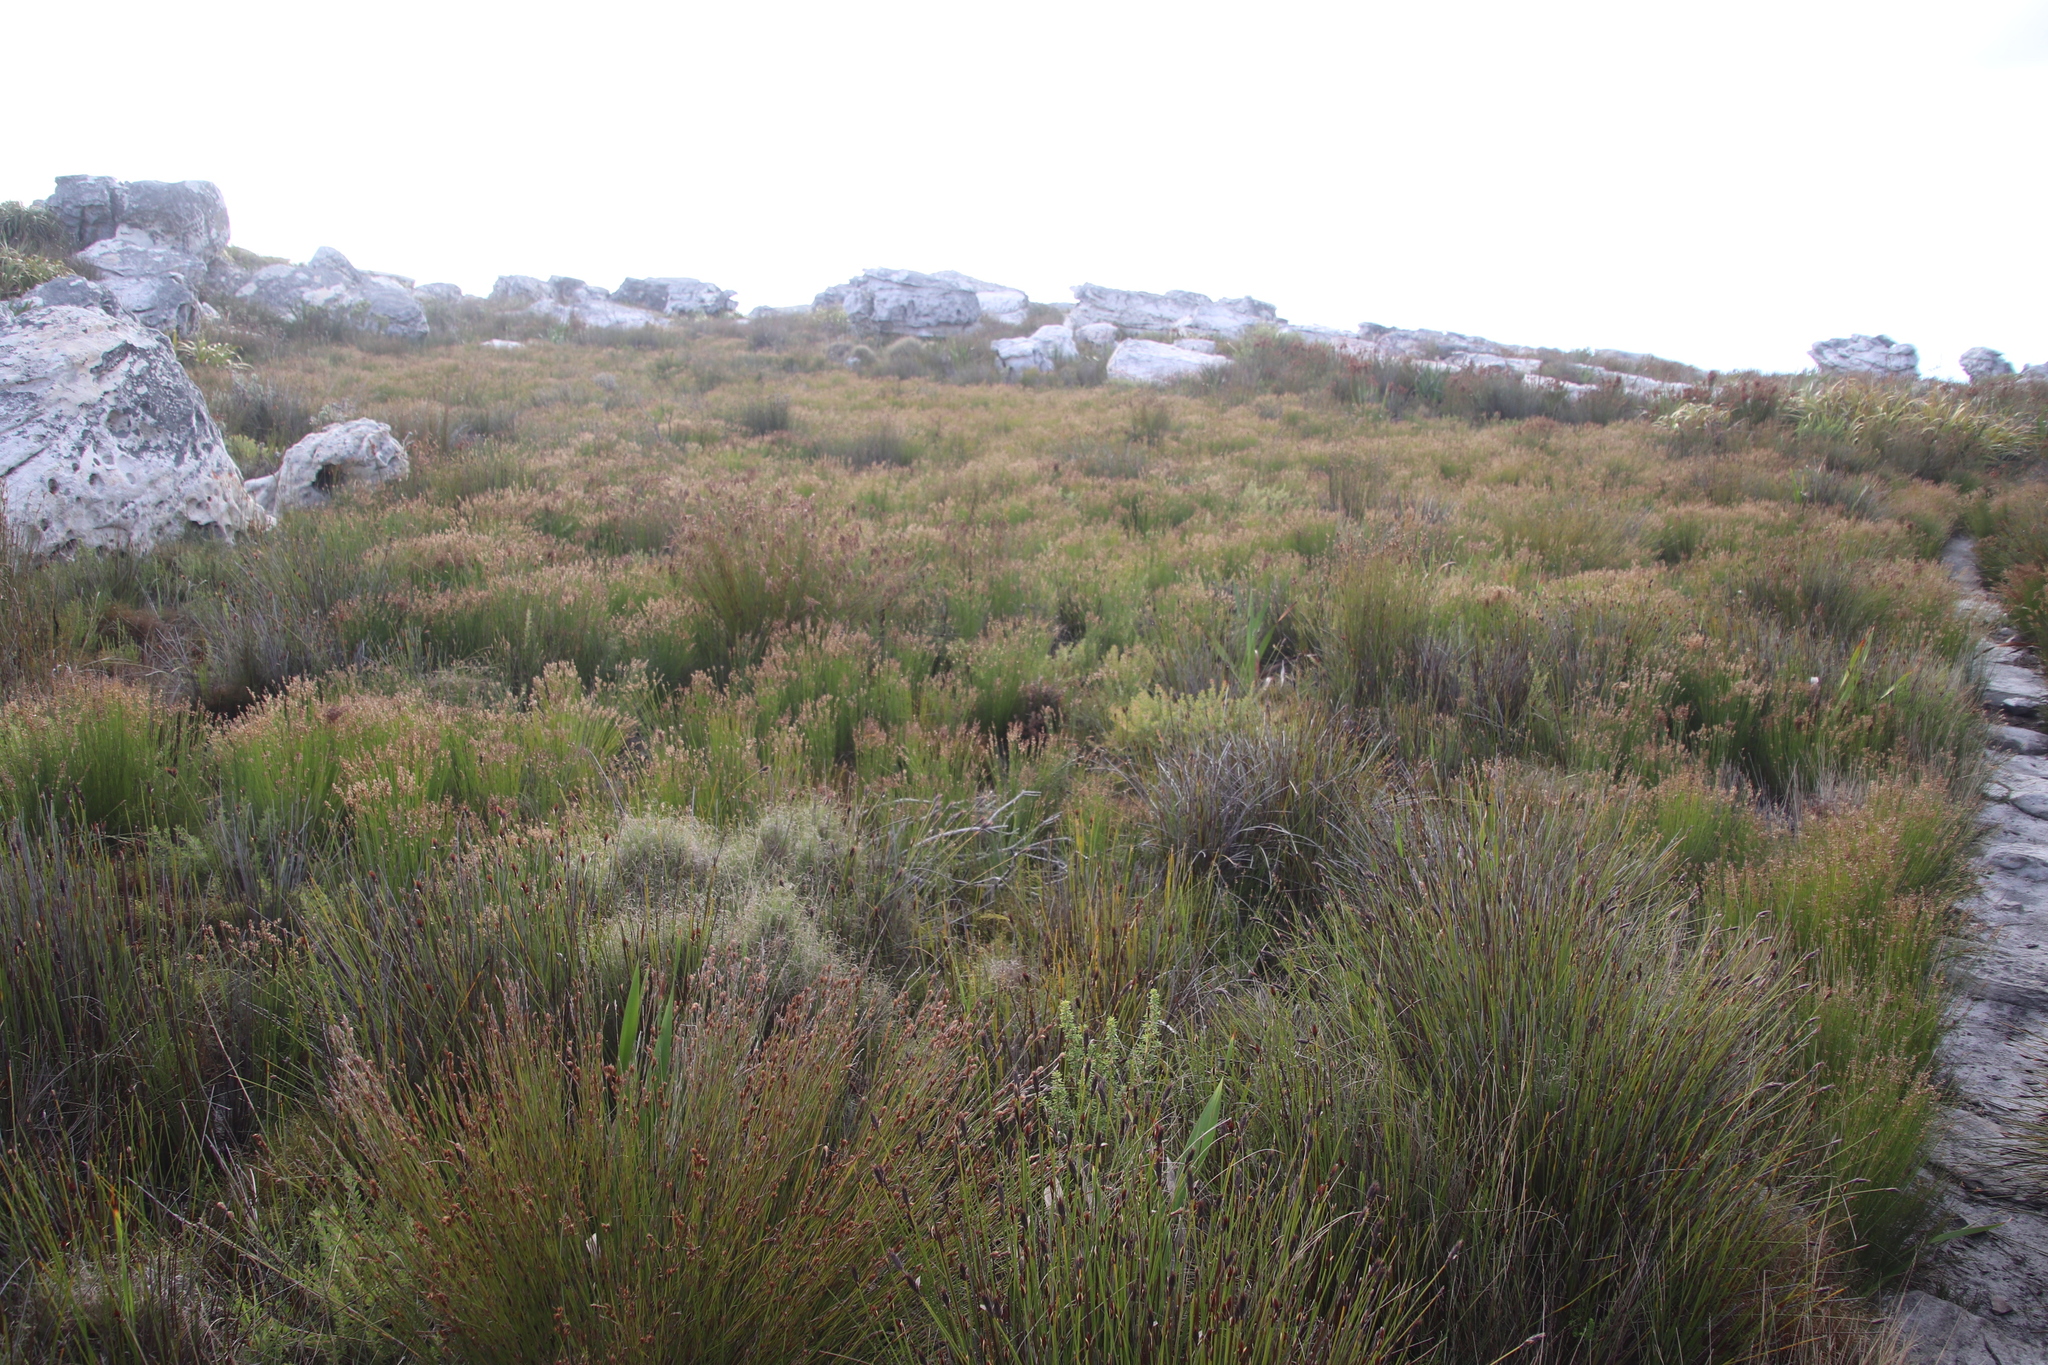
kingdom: Plantae
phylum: Tracheophyta
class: Liliopsida
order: Poales
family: Restionaceae
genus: Elegia
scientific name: Elegia filacea
